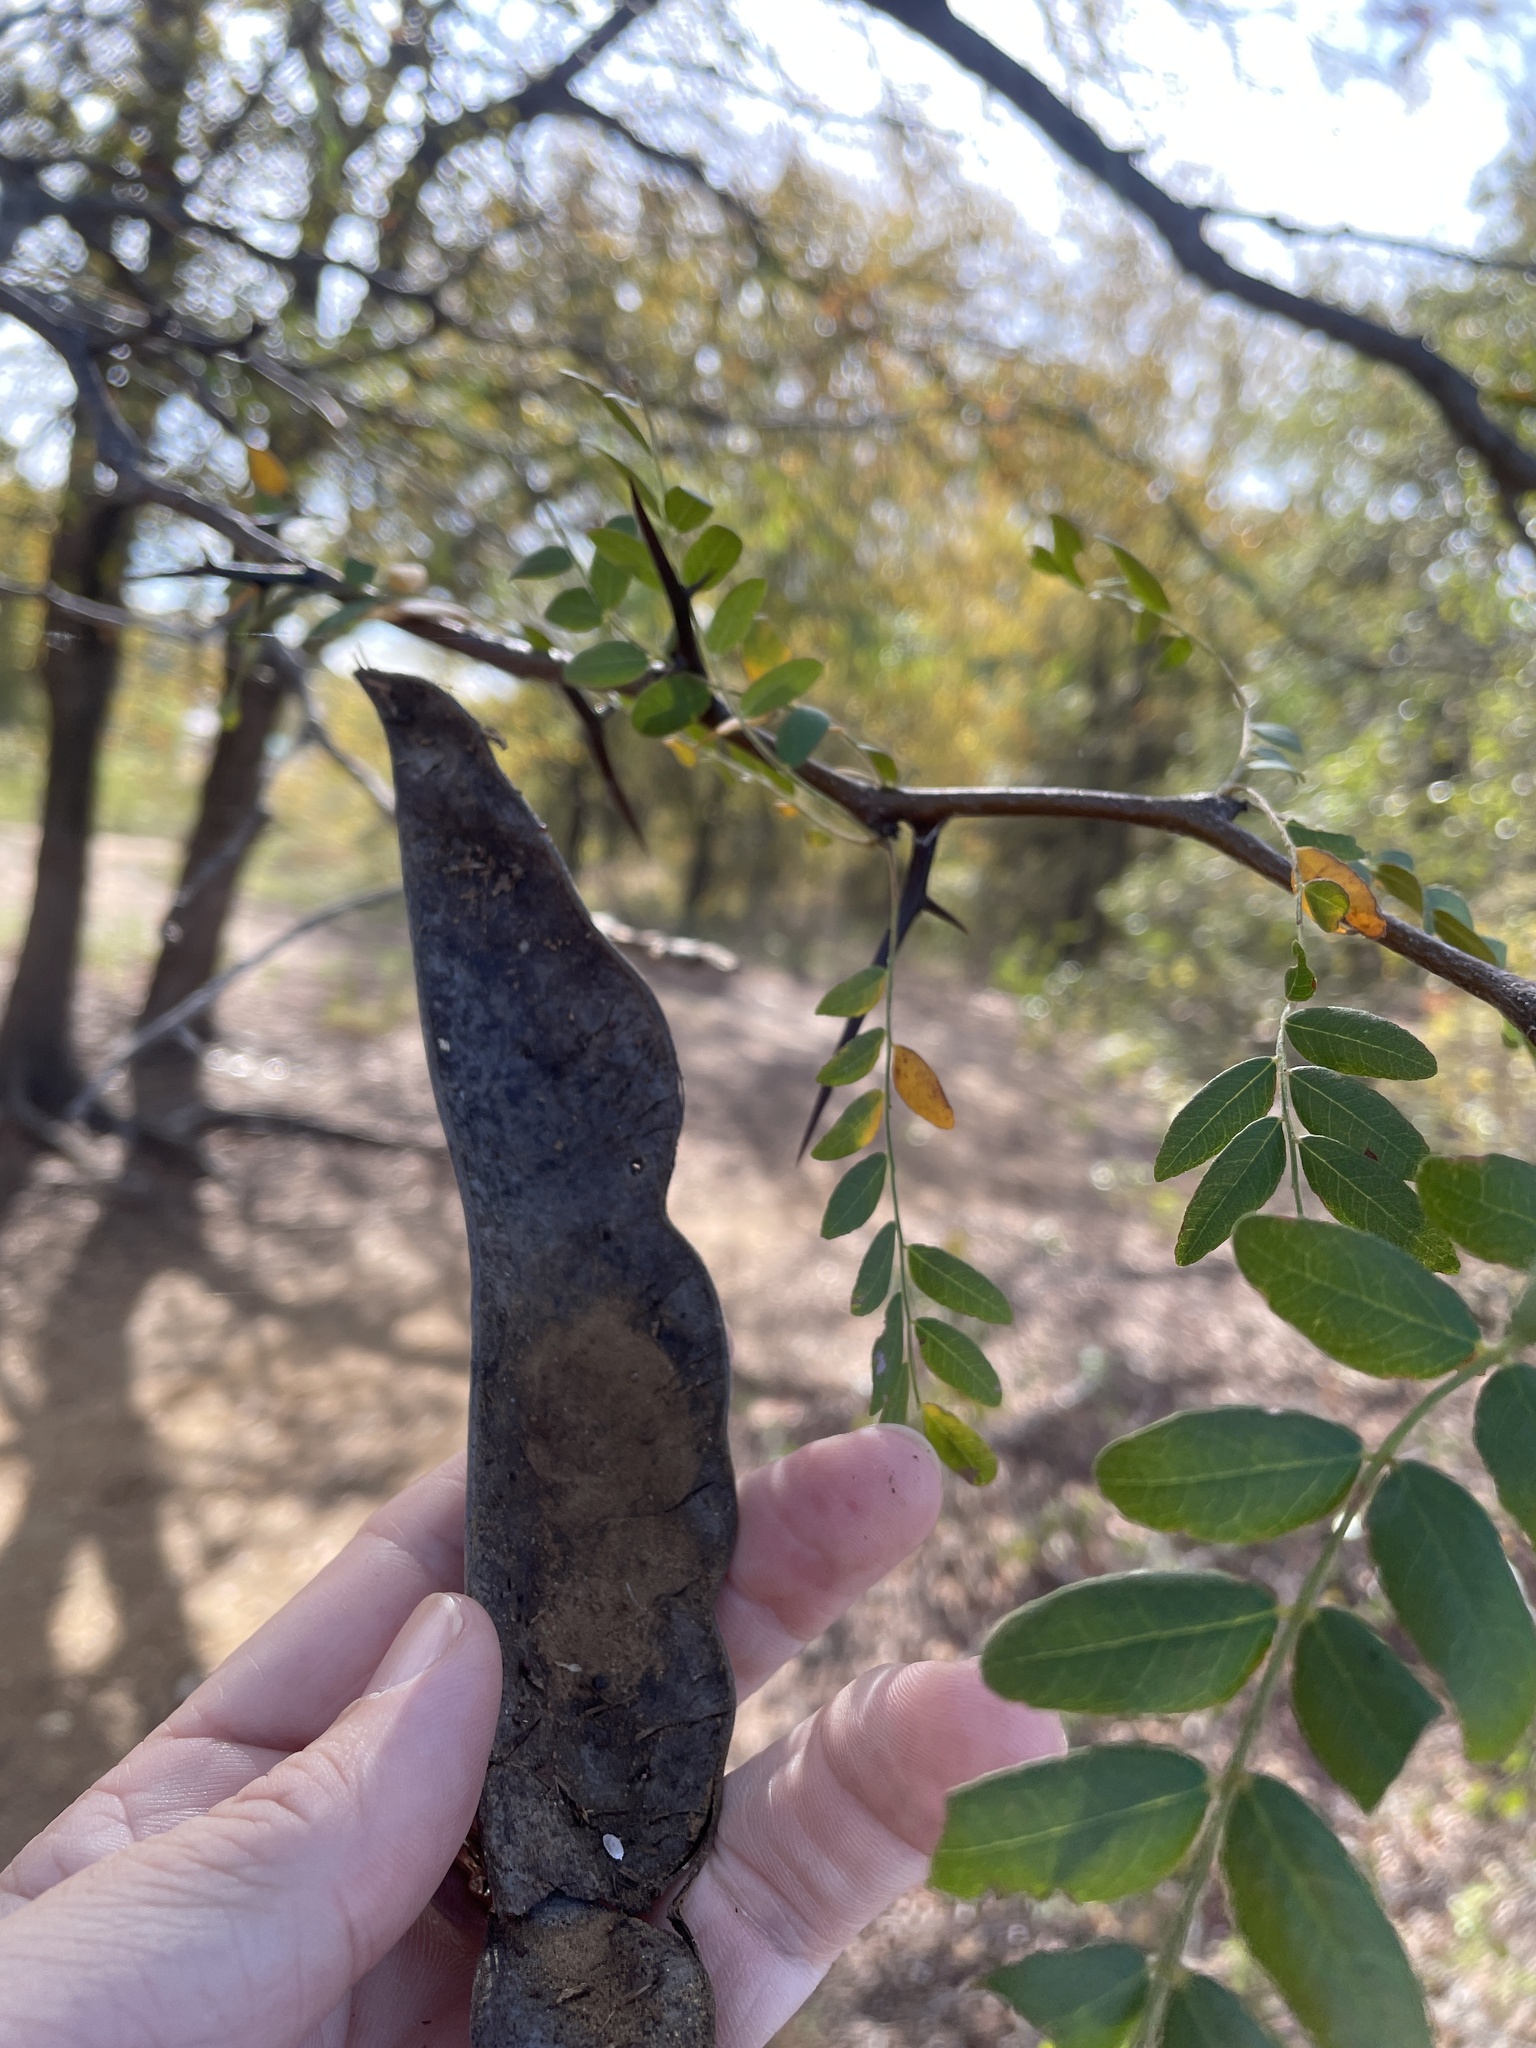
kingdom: Plantae
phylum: Tracheophyta
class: Magnoliopsida
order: Fabales
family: Fabaceae
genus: Gleditsia
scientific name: Gleditsia triacanthos
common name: Common honeylocust
